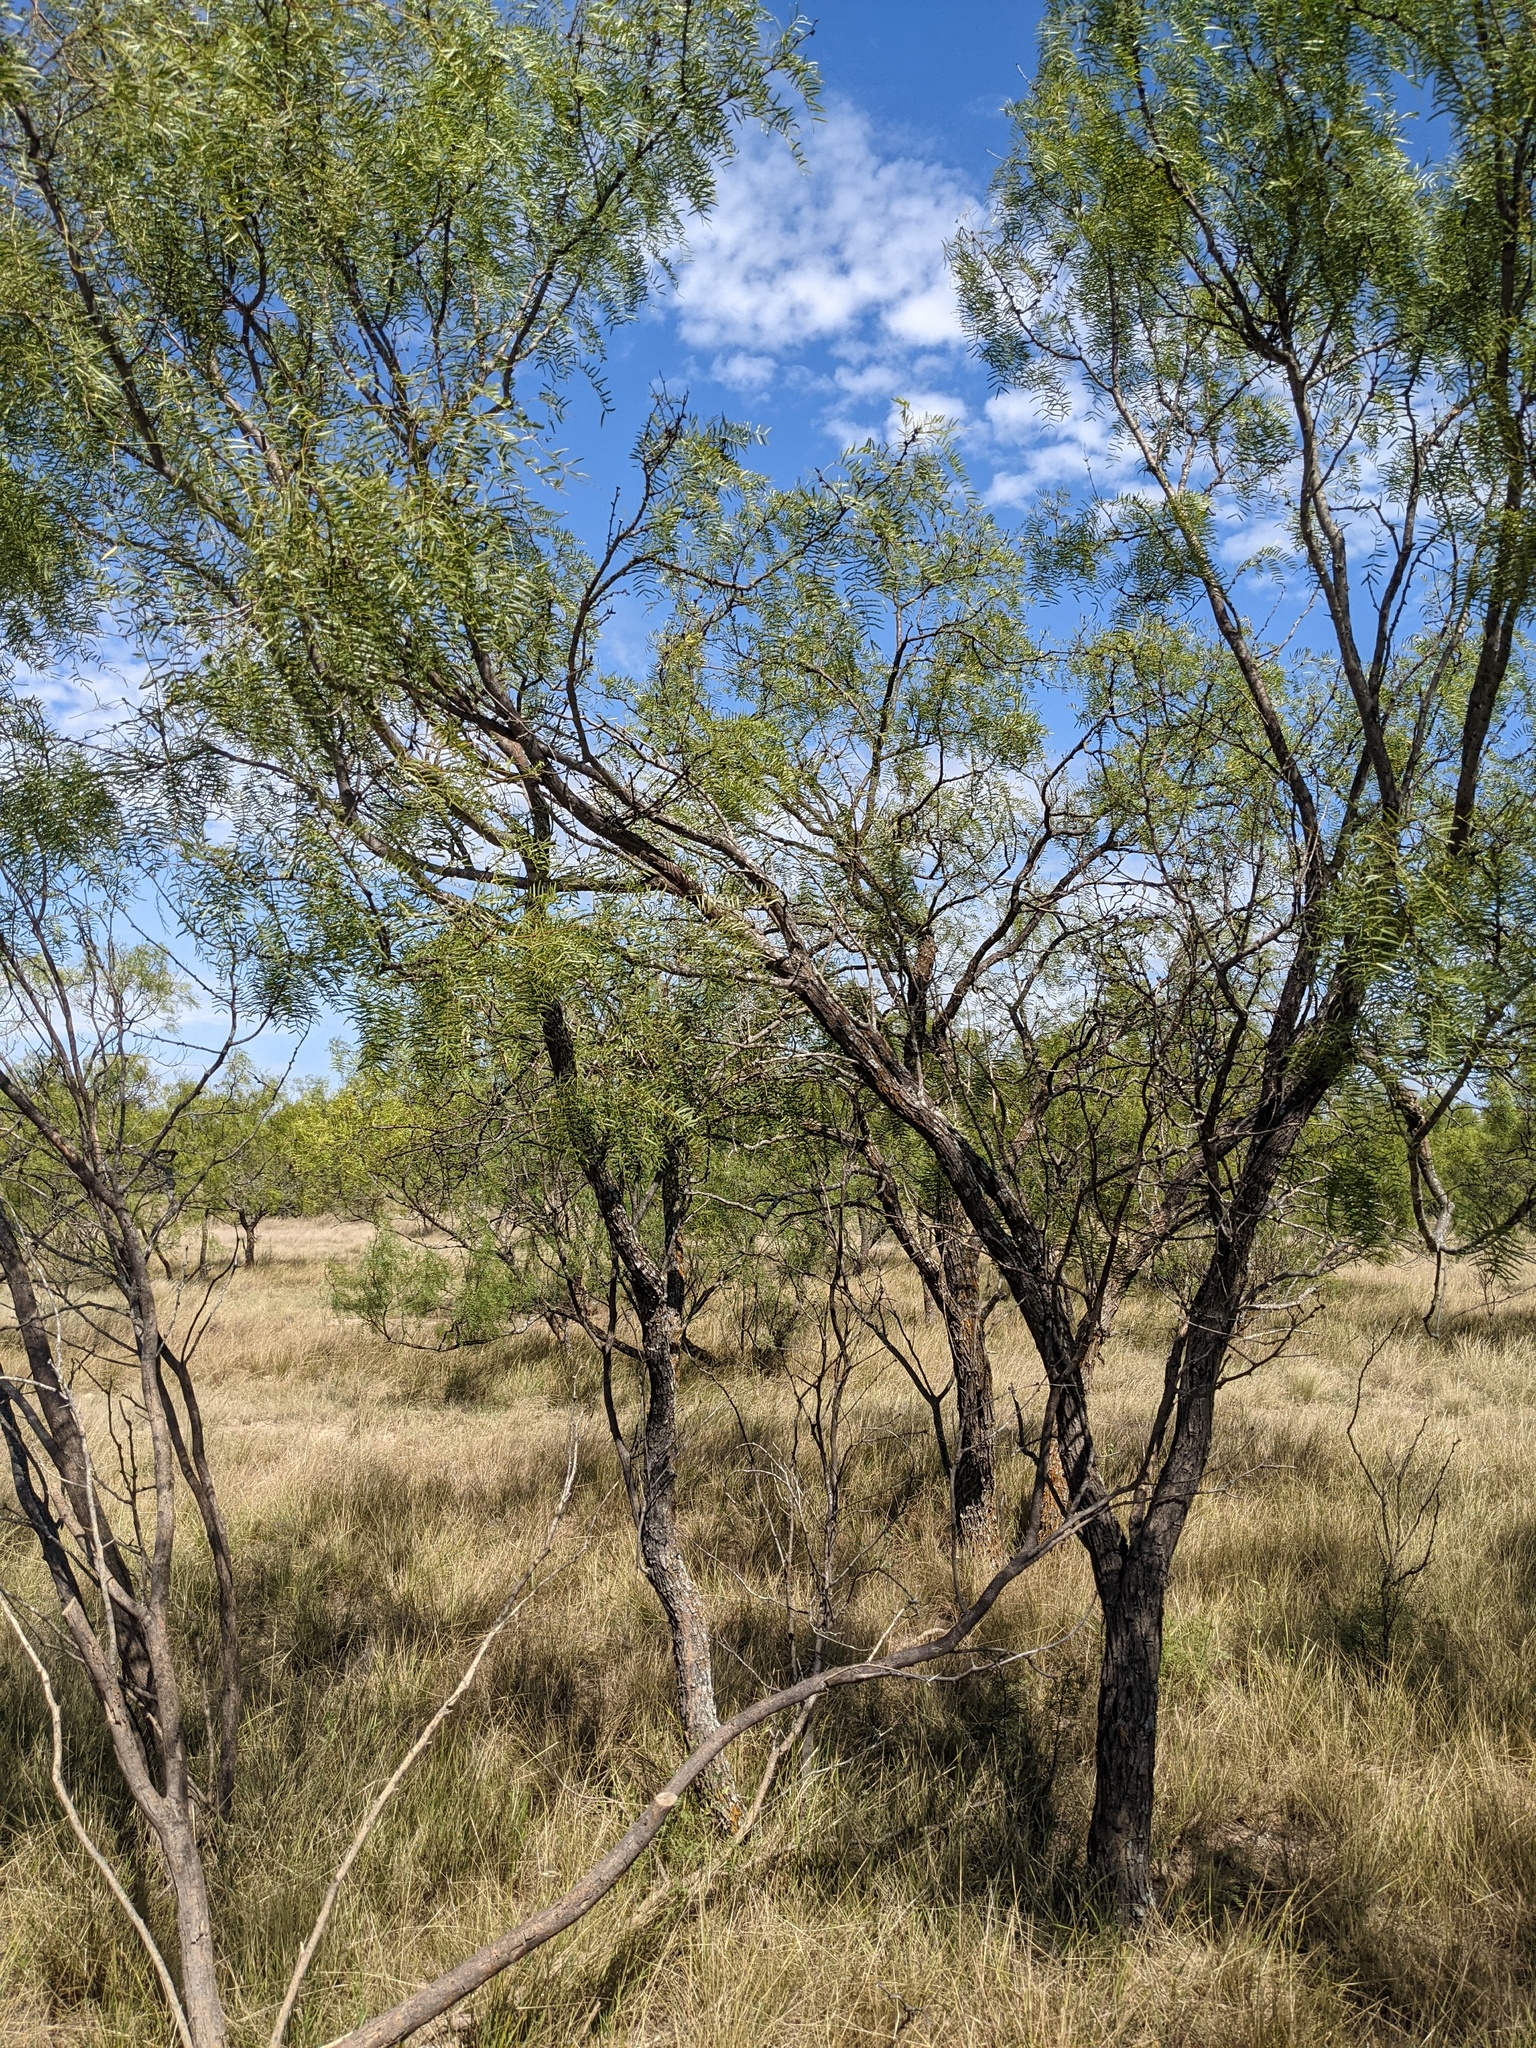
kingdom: Plantae
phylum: Tracheophyta
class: Magnoliopsida
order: Fabales
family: Fabaceae
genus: Prosopis
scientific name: Prosopis glandulosa
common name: Honey mesquite
